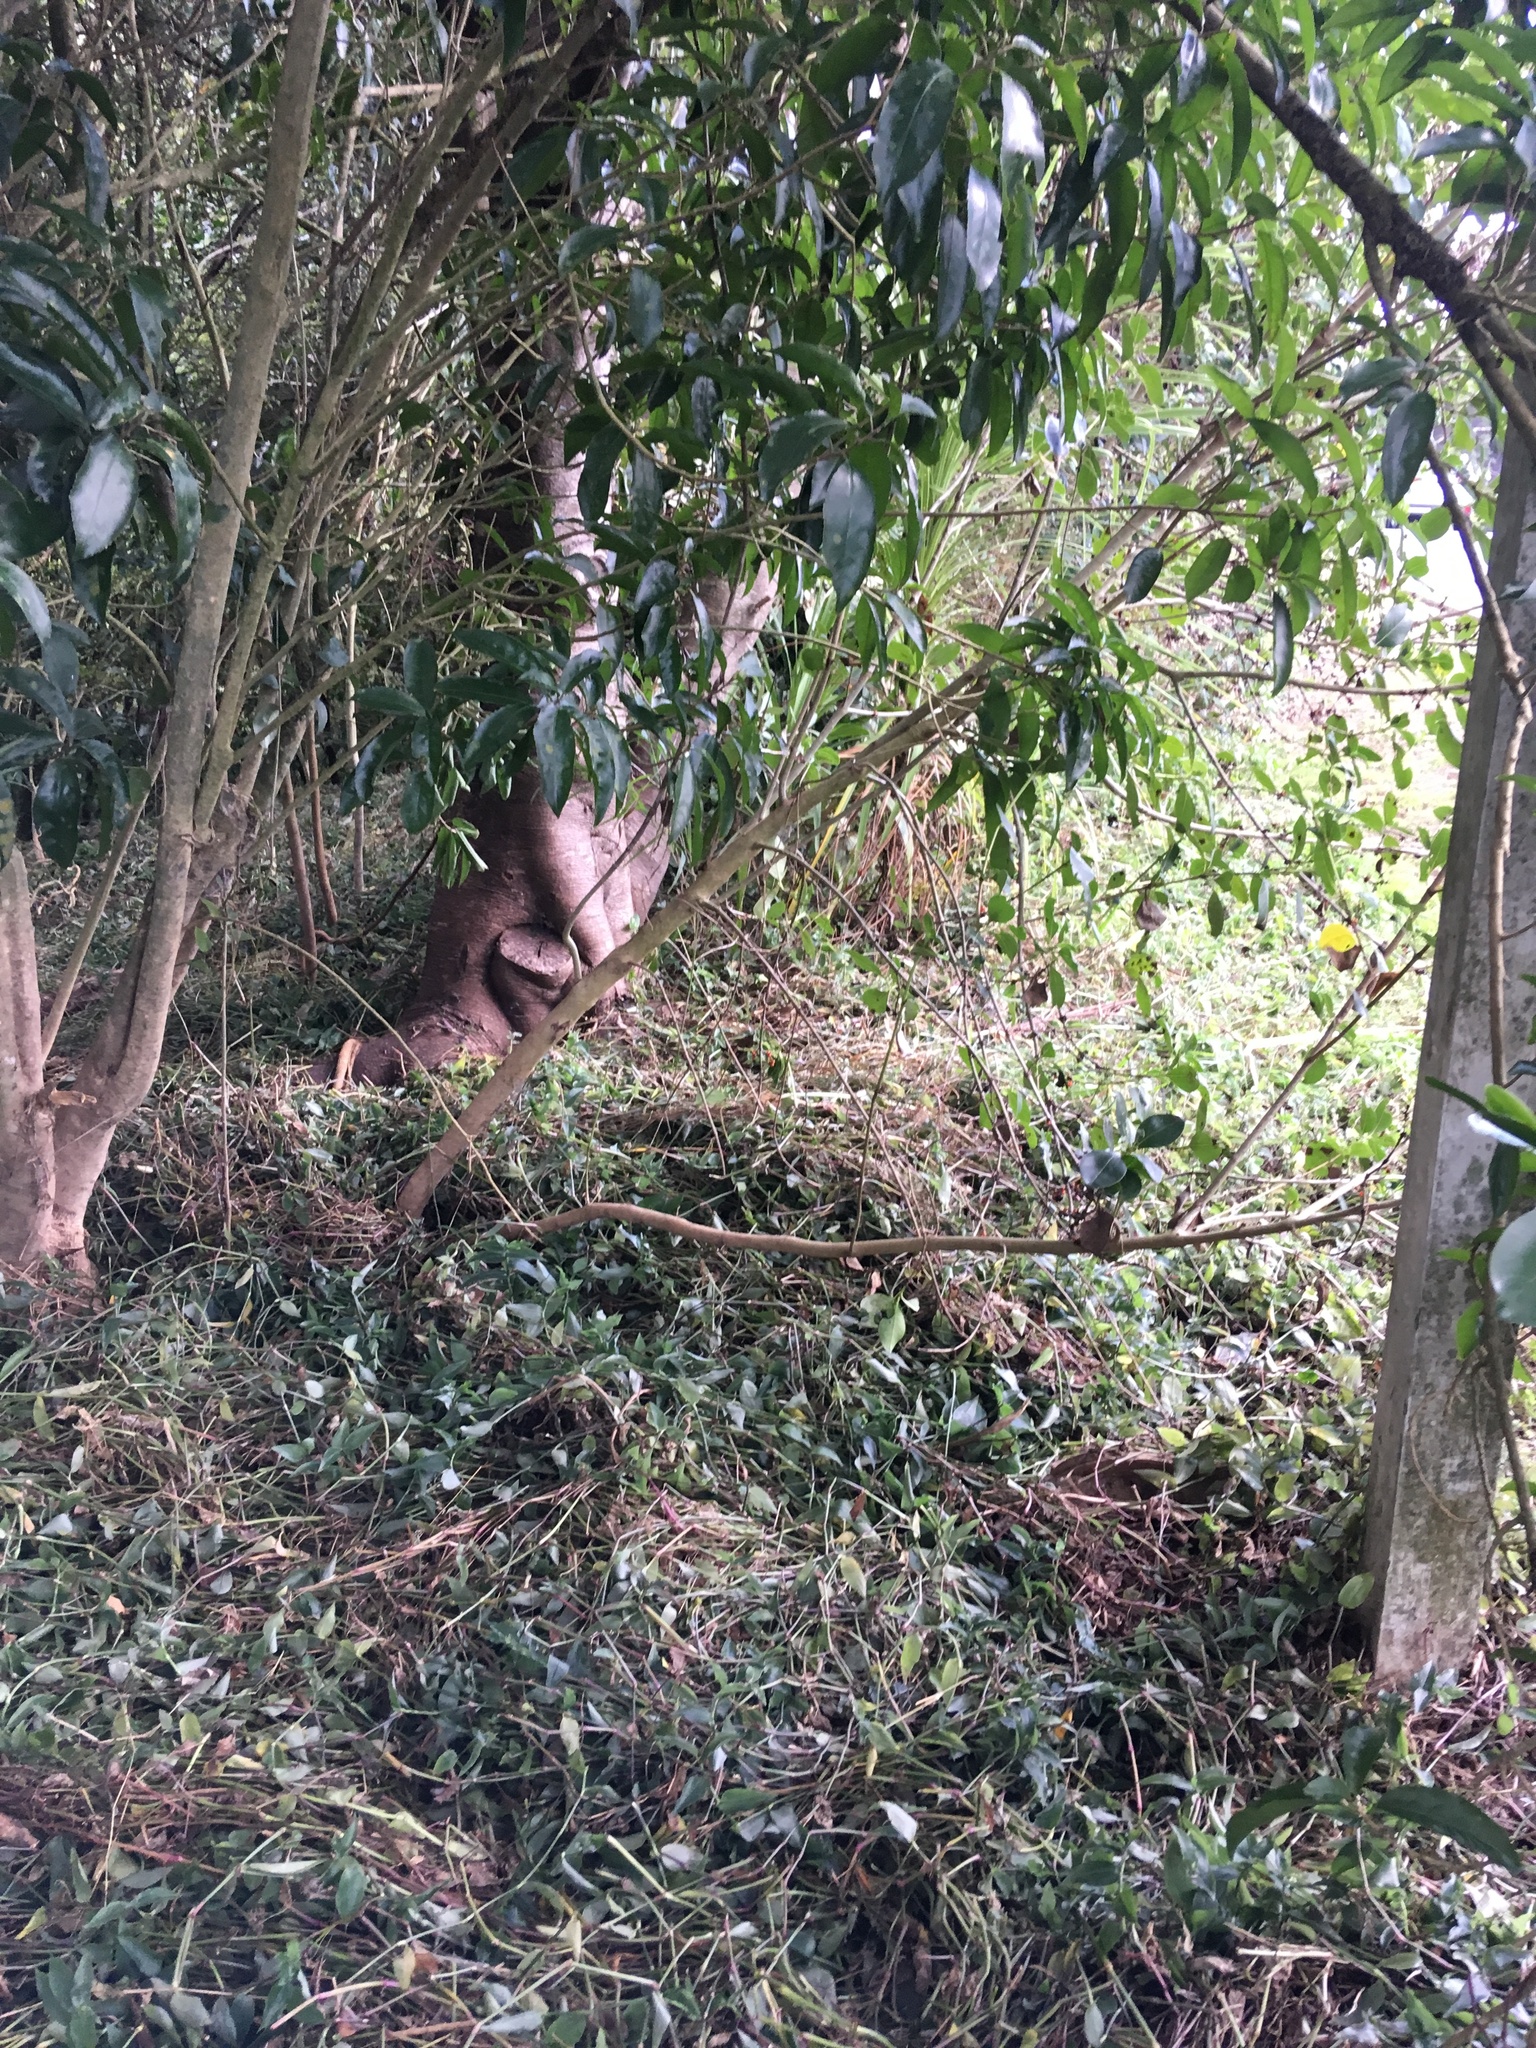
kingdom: Plantae
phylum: Tracheophyta
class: Liliopsida
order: Commelinales
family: Commelinaceae
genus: Tradescantia
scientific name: Tradescantia fluminensis
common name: Wandering-jew
